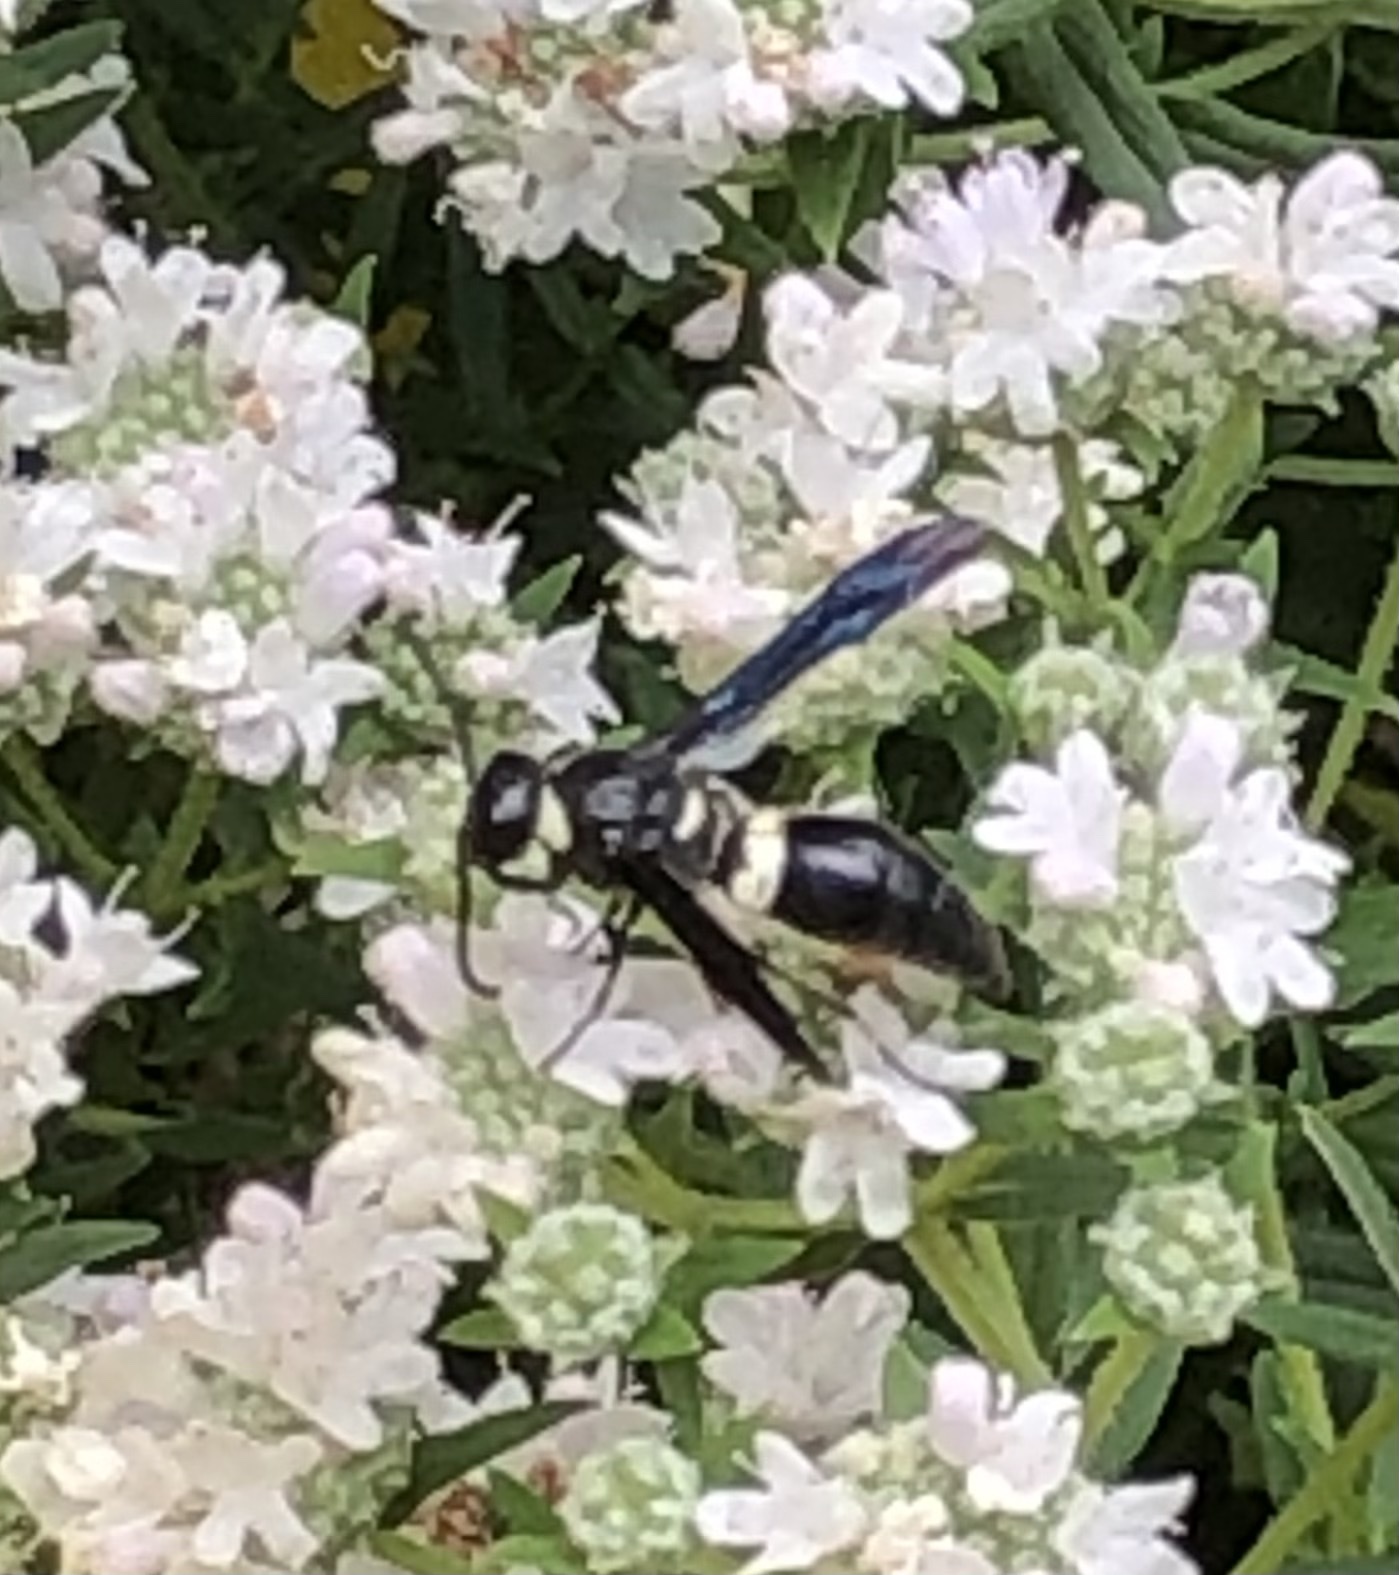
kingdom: Animalia
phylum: Arthropoda
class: Insecta
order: Hymenoptera
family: Eumenidae
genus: Monobia
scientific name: Monobia quadridens
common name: Four-toothed mason wasp
